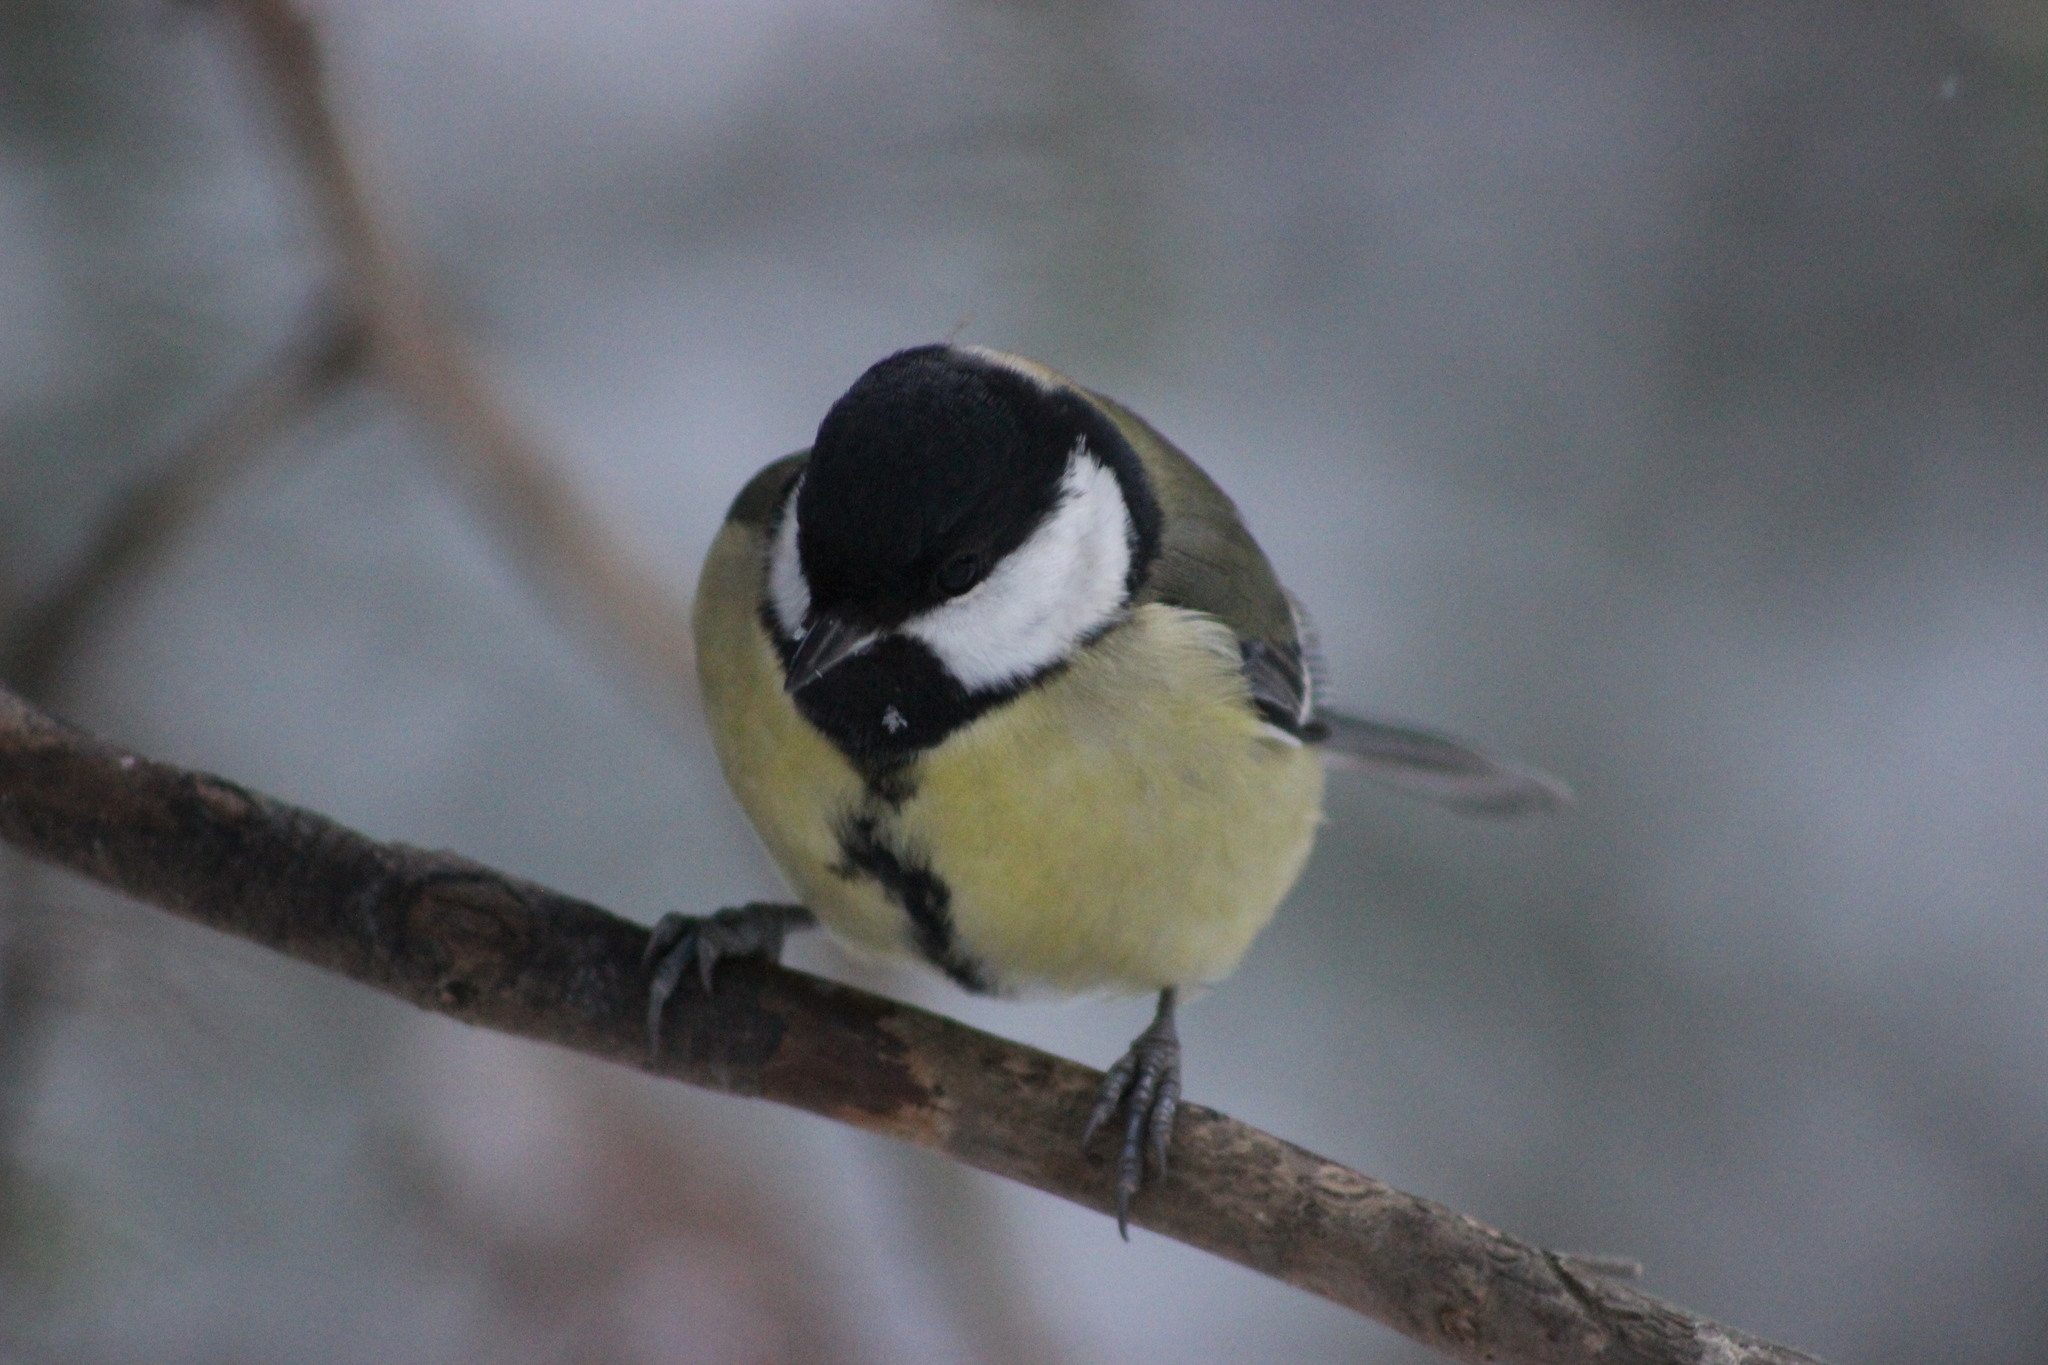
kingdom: Animalia
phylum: Chordata
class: Aves
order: Passeriformes
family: Paridae
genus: Parus
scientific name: Parus major
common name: Great tit
